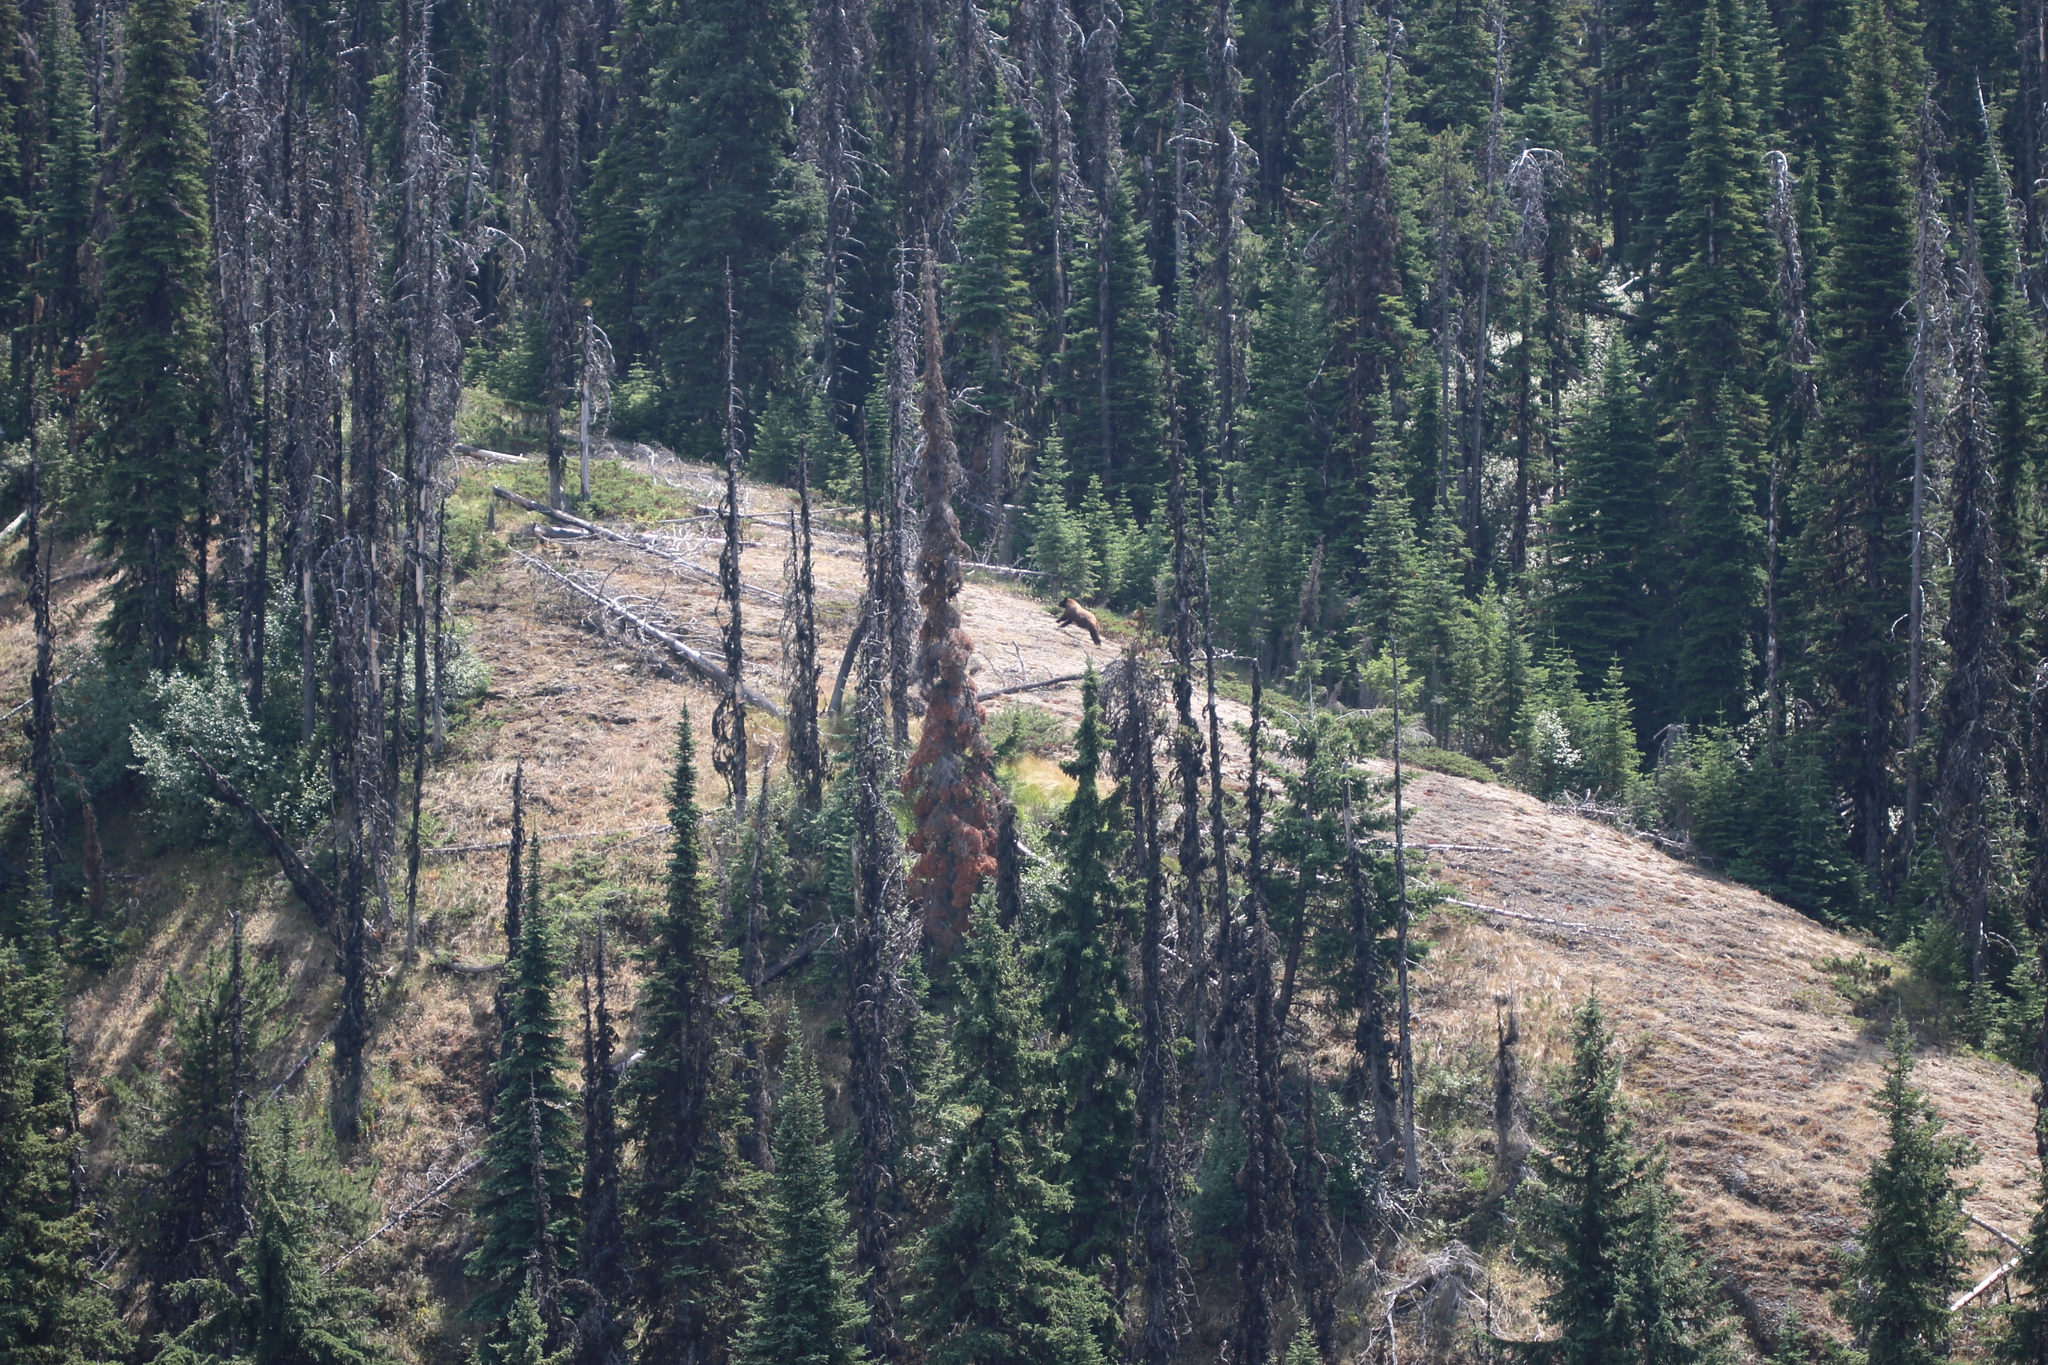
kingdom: Animalia
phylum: Chordata
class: Mammalia
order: Carnivora
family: Ursidae
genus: Ursus
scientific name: Ursus americanus
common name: American black bear
